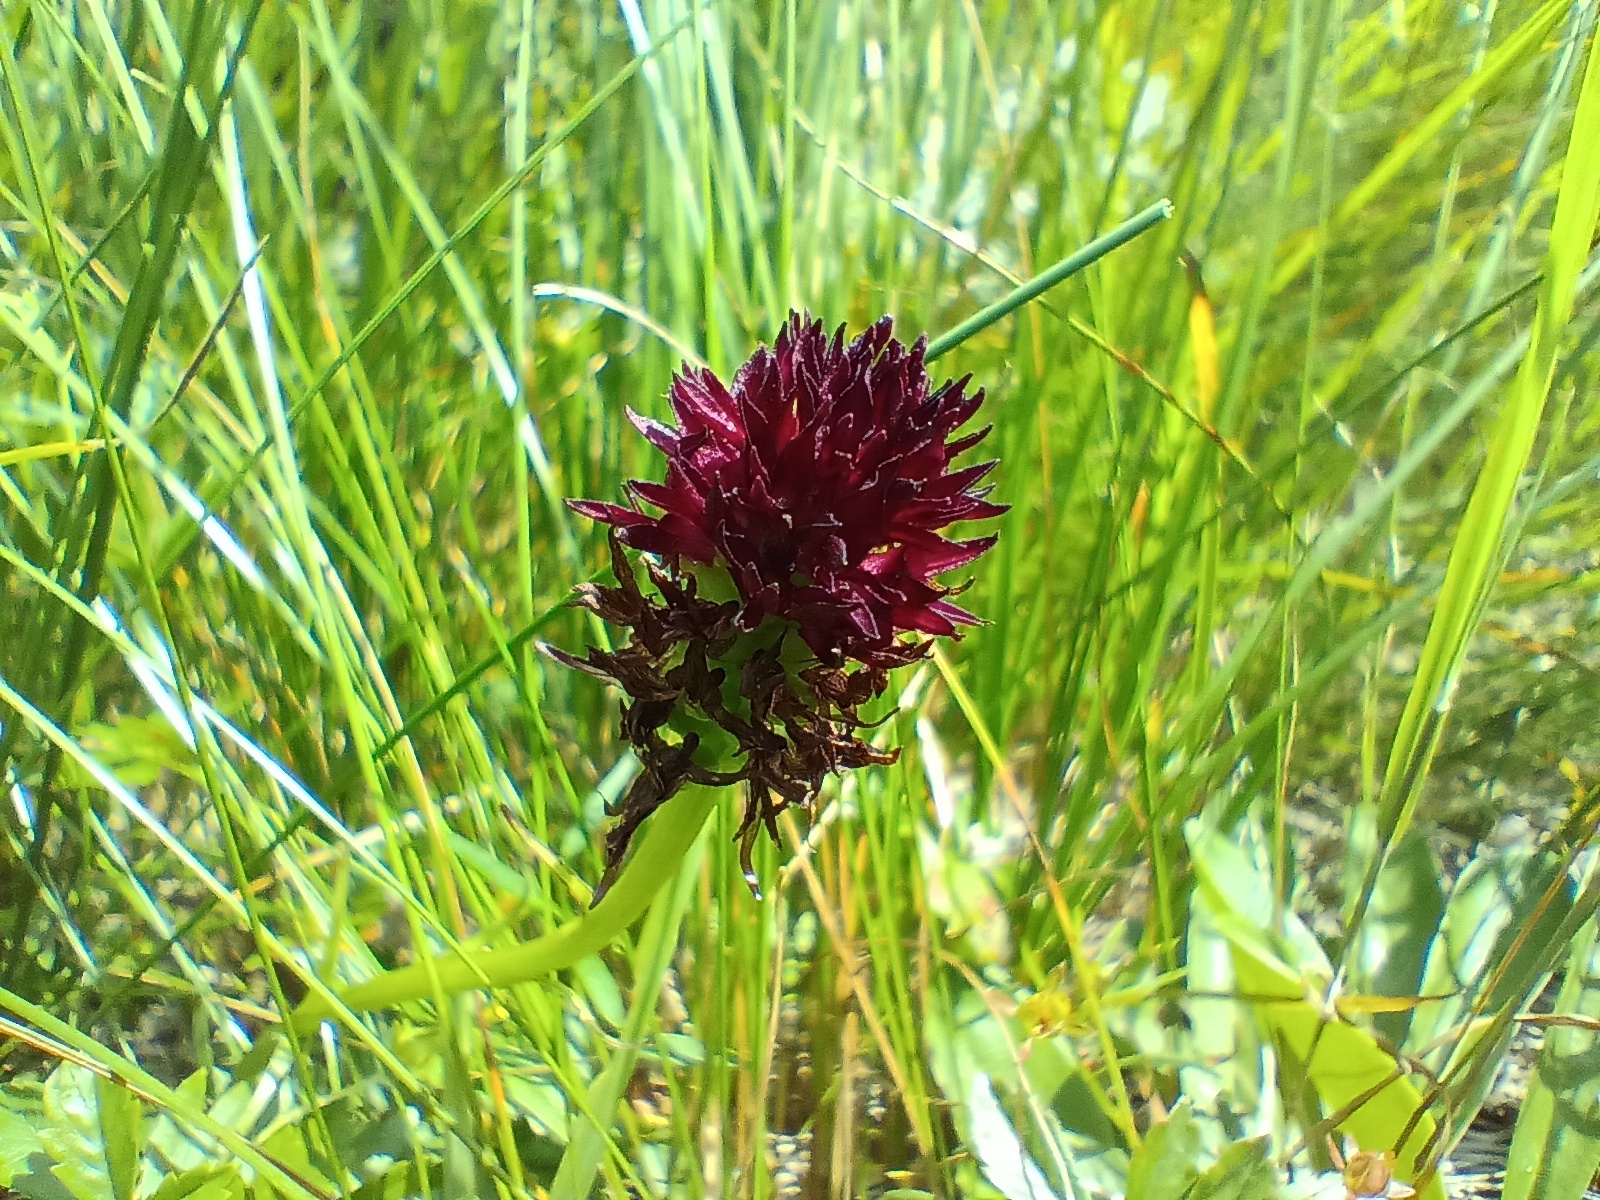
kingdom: Plantae
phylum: Tracheophyta
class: Liliopsida
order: Asparagales
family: Orchidaceae
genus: Gymnadenia
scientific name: Gymnadenia rhellicani
